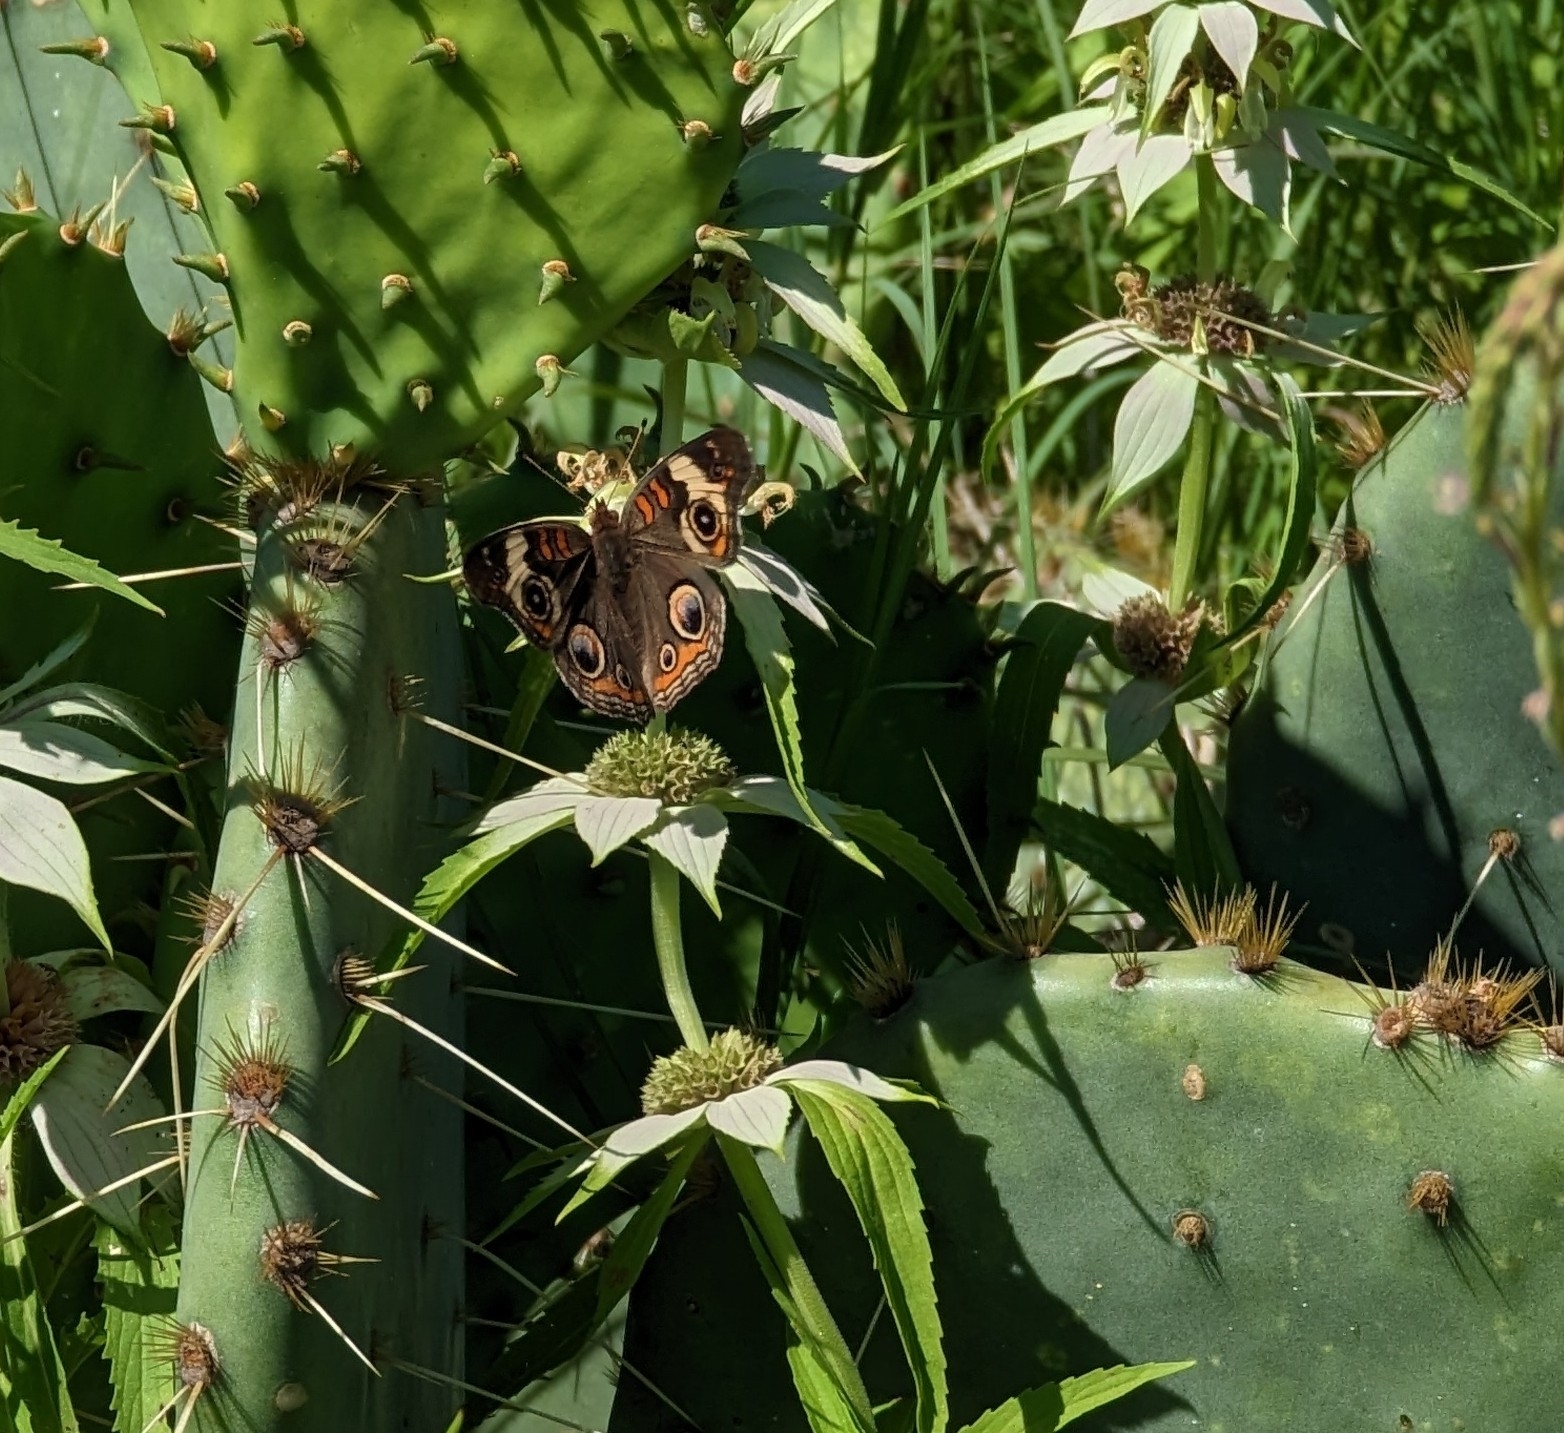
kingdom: Animalia
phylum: Arthropoda
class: Insecta
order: Lepidoptera
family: Nymphalidae
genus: Junonia
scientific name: Junonia coenia
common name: Common buckeye
